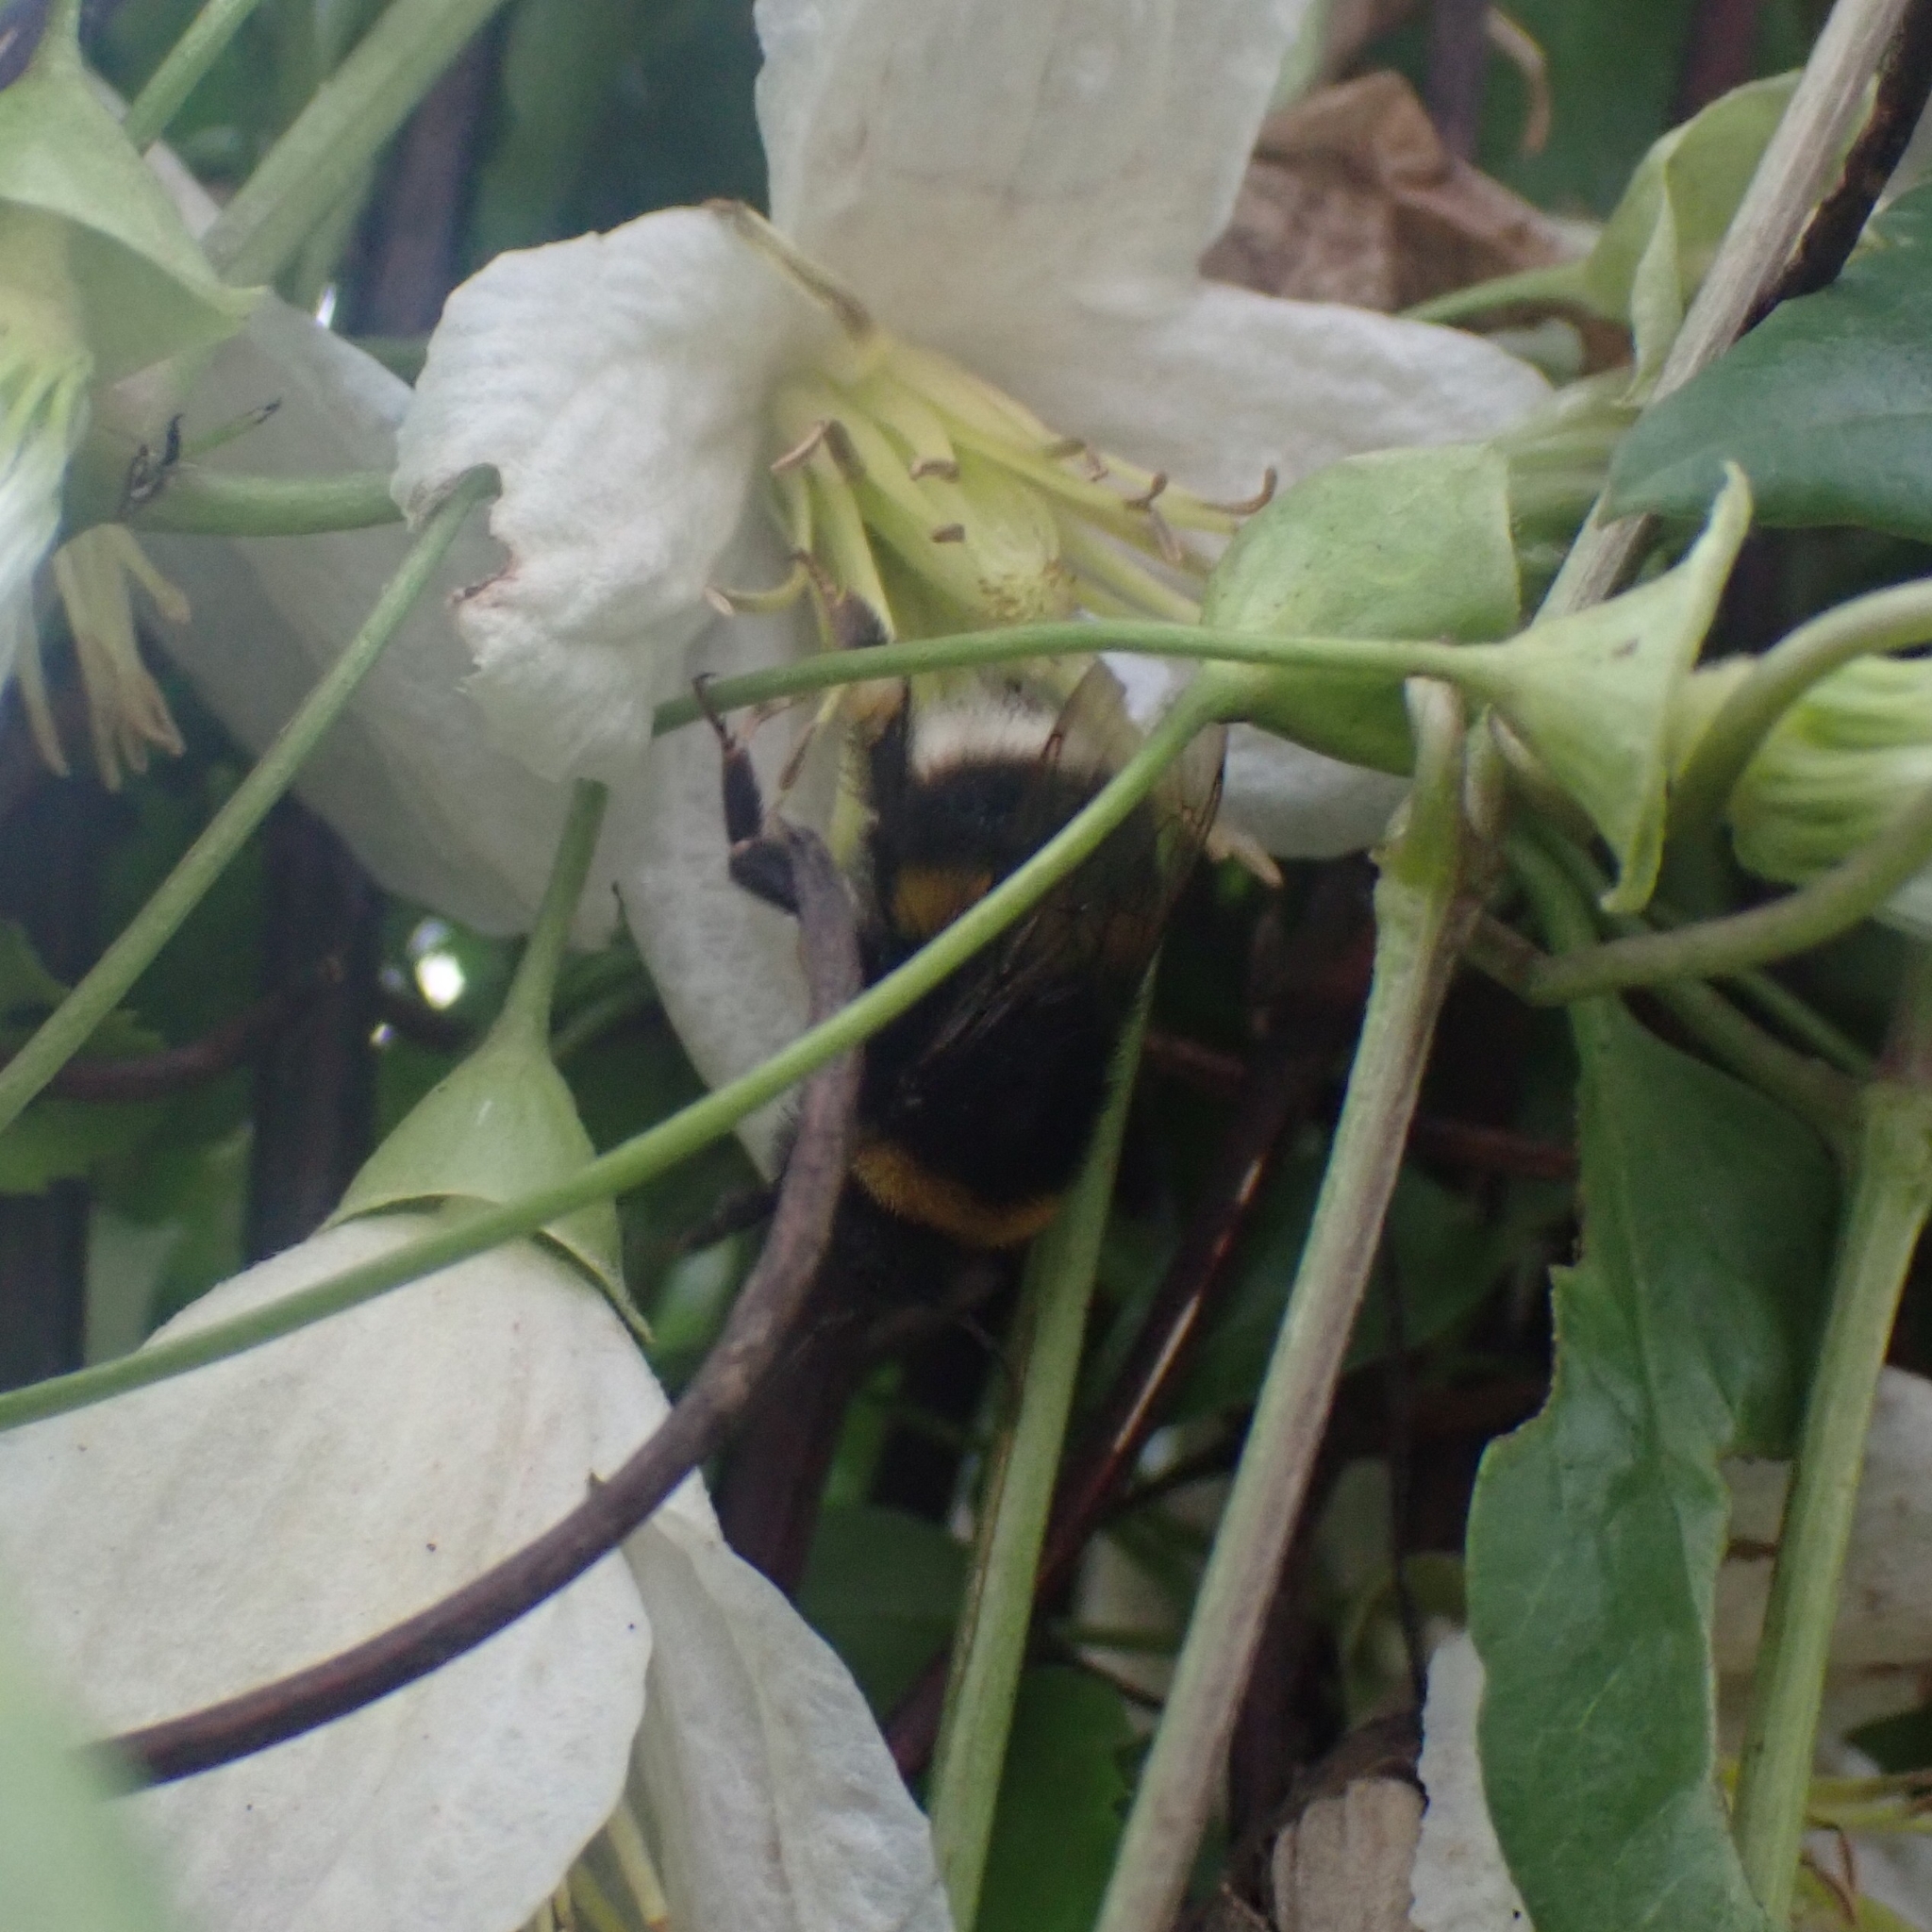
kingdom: Animalia
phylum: Arthropoda
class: Insecta
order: Hymenoptera
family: Apidae
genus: Bombus
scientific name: Bombus
